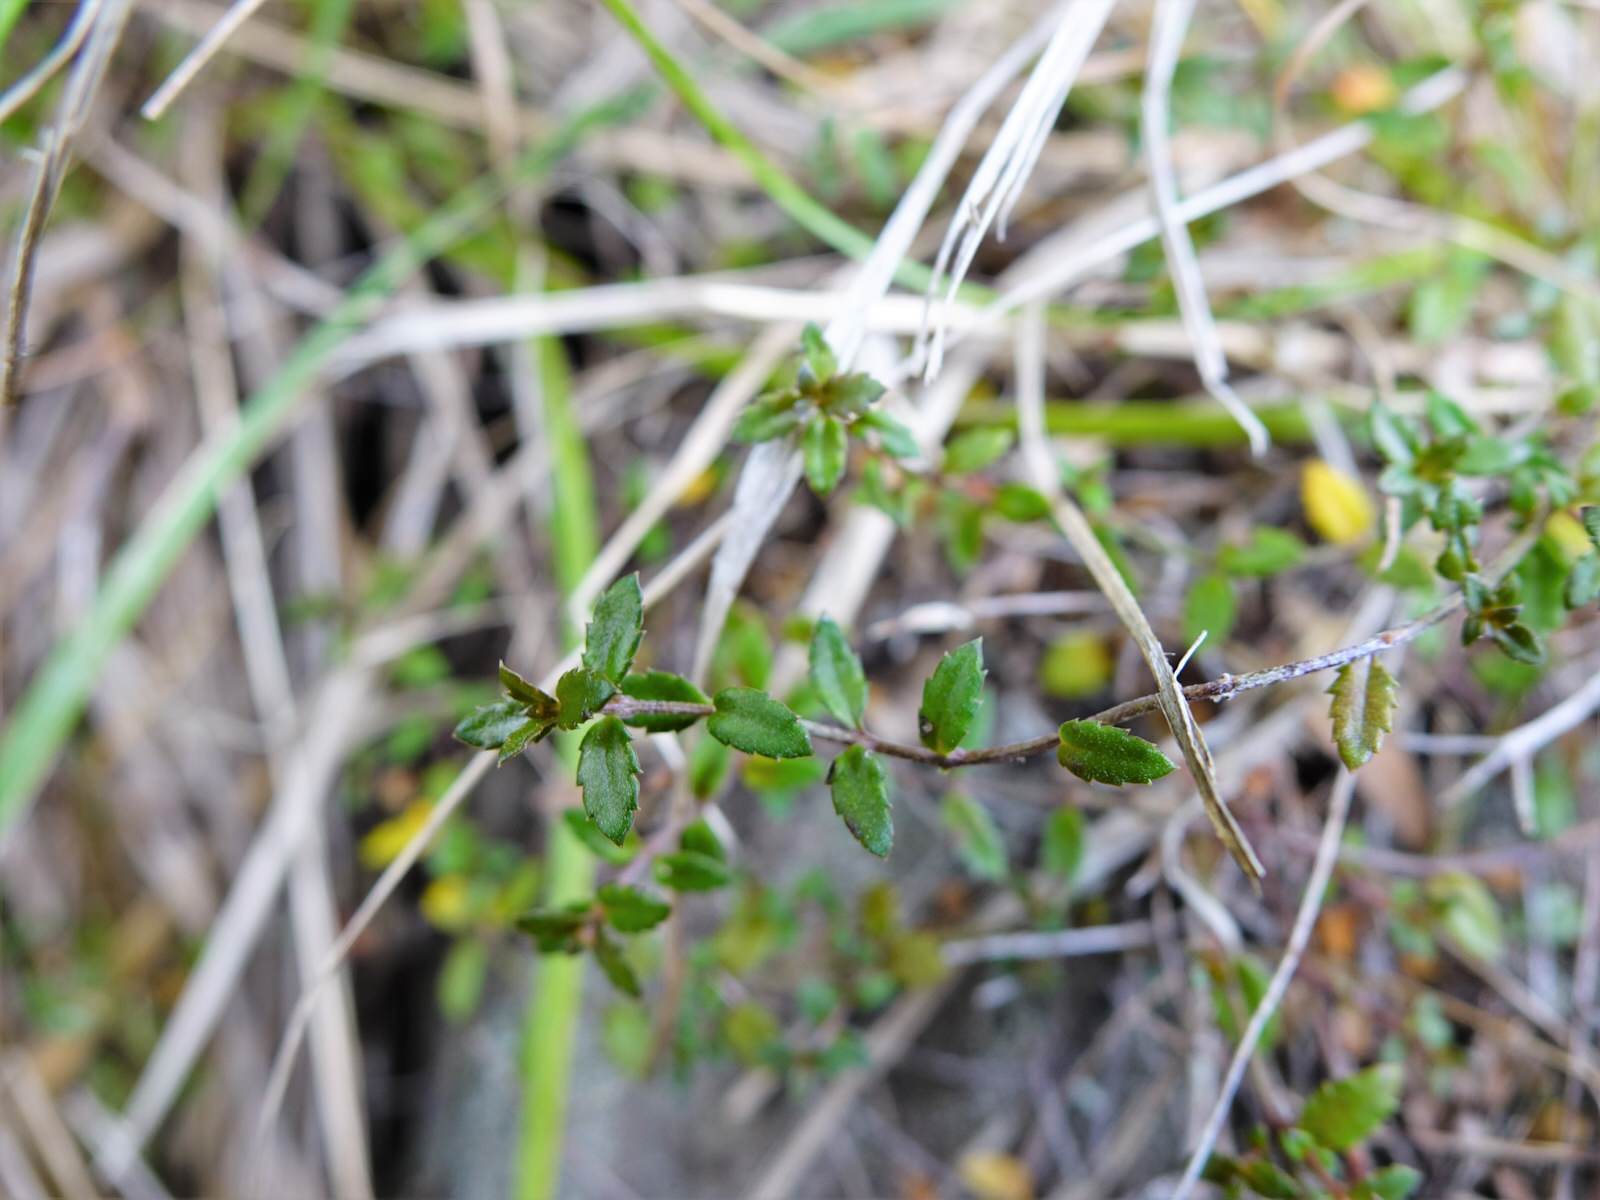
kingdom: Plantae
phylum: Tracheophyta
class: Magnoliopsida
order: Saxifragales
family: Haloragaceae
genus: Gonocarpus
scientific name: Gonocarpus incanus
